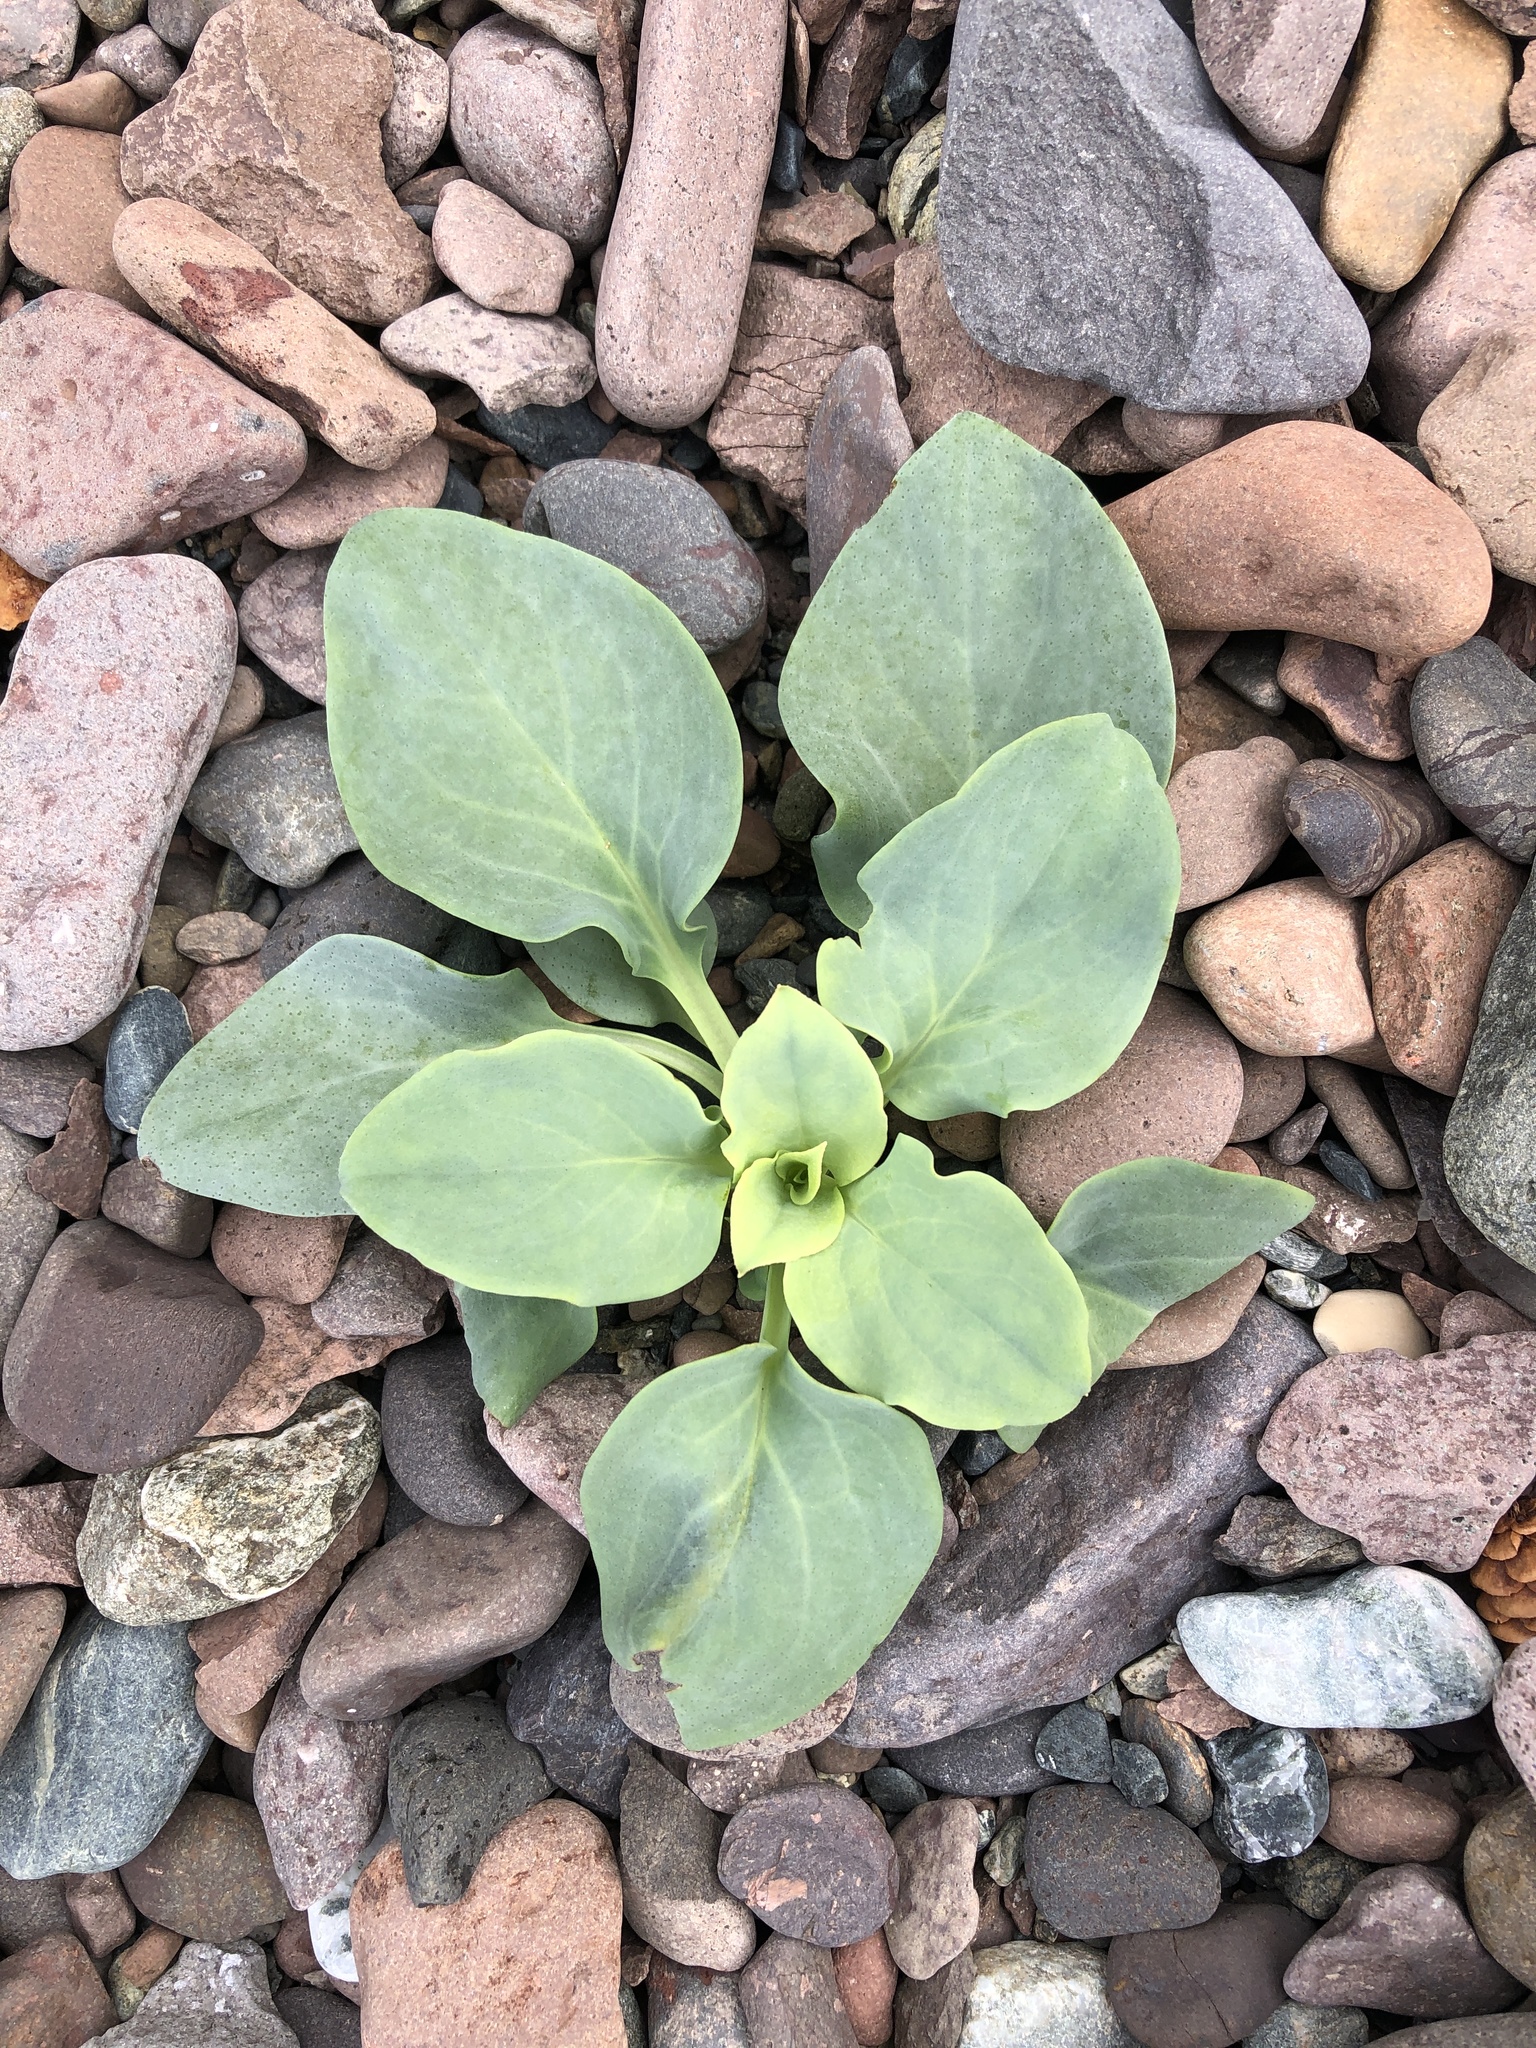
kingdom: Plantae
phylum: Tracheophyta
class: Magnoliopsida
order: Boraginales
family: Boraginaceae
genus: Mertensia
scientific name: Mertensia maritima
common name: Oysterplant
